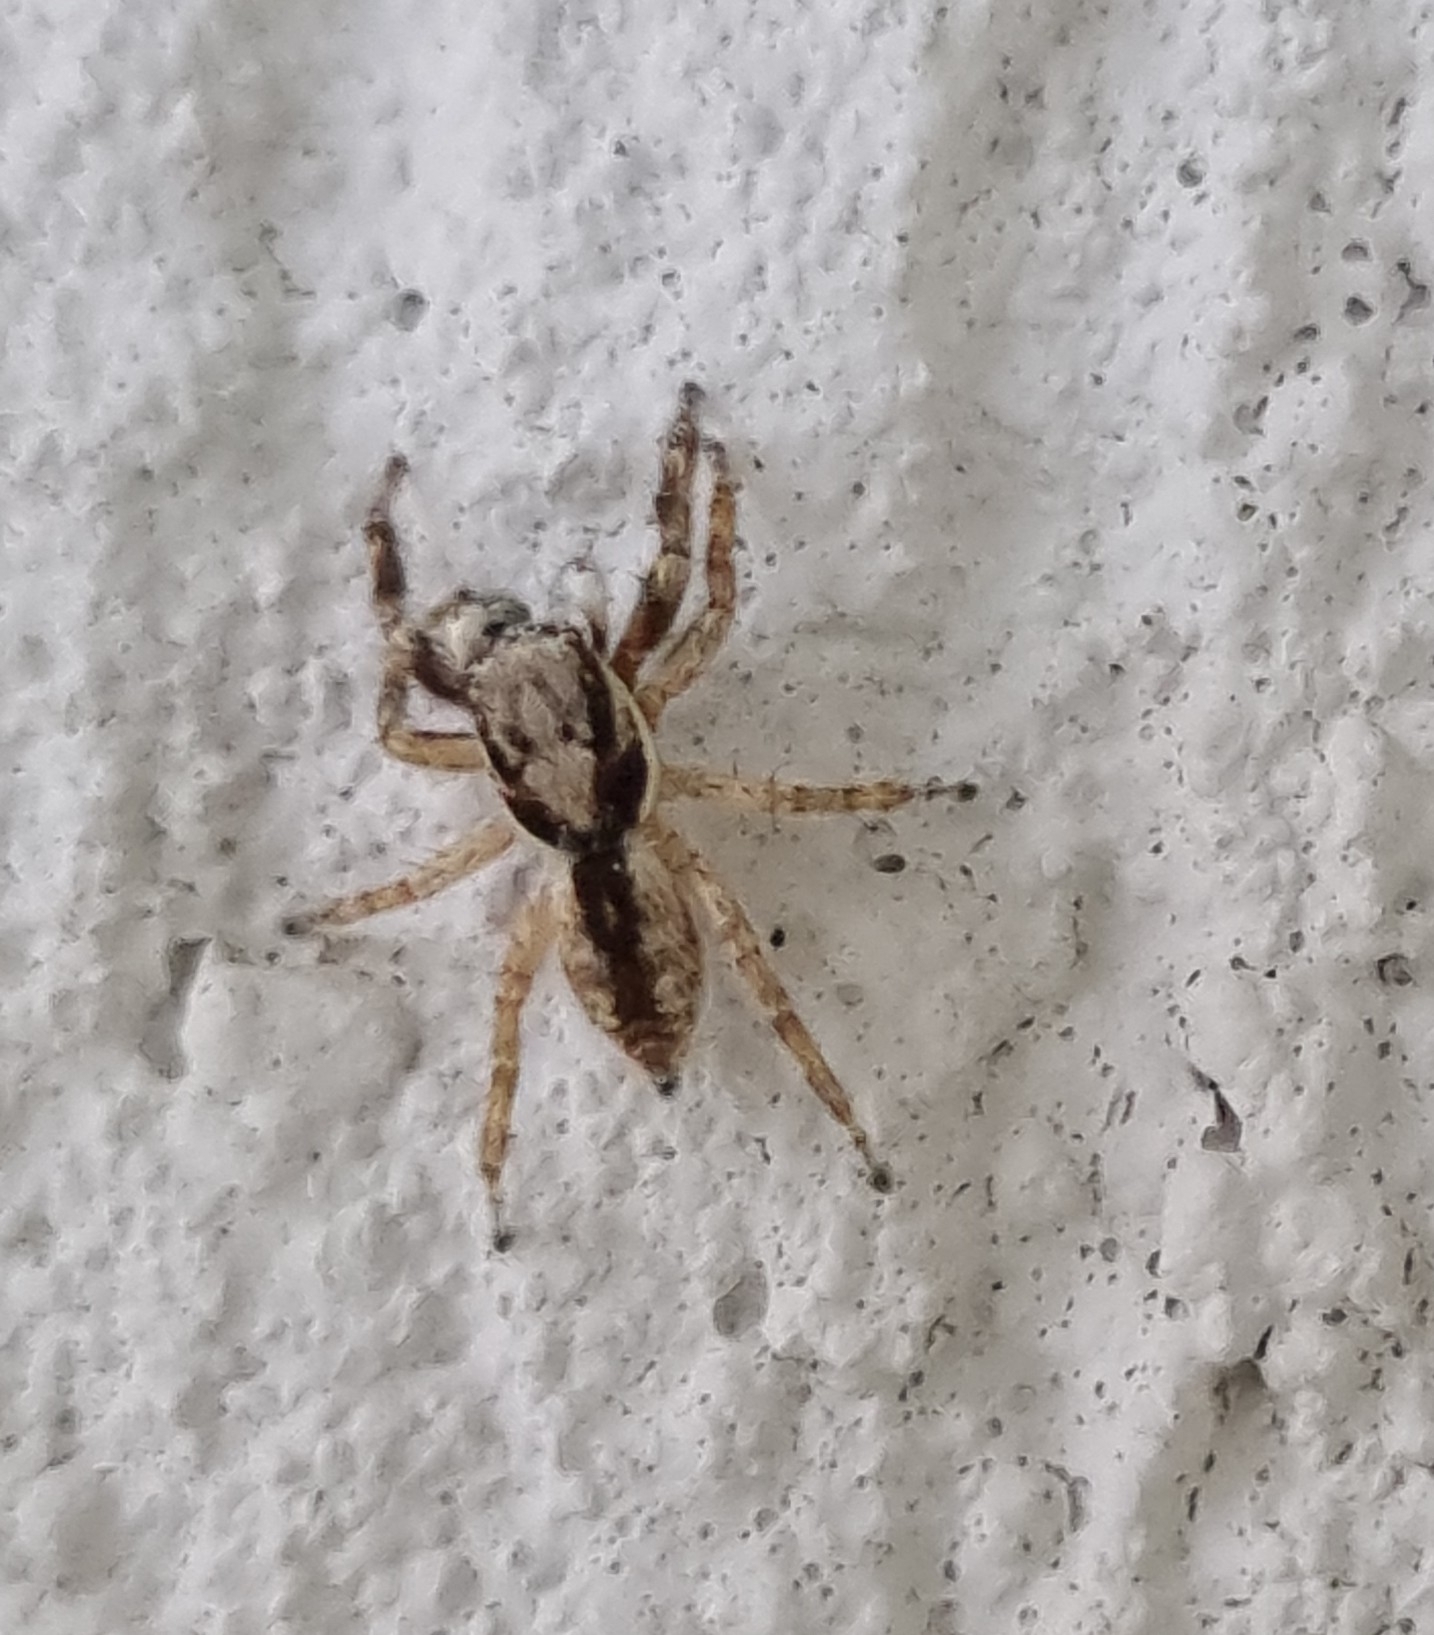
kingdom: Animalia
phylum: Arthropoda
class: Arachnida
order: Araneae
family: Salticidae
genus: Menemerus
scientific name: Menemerus bivittatus
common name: Gray wall jumper
